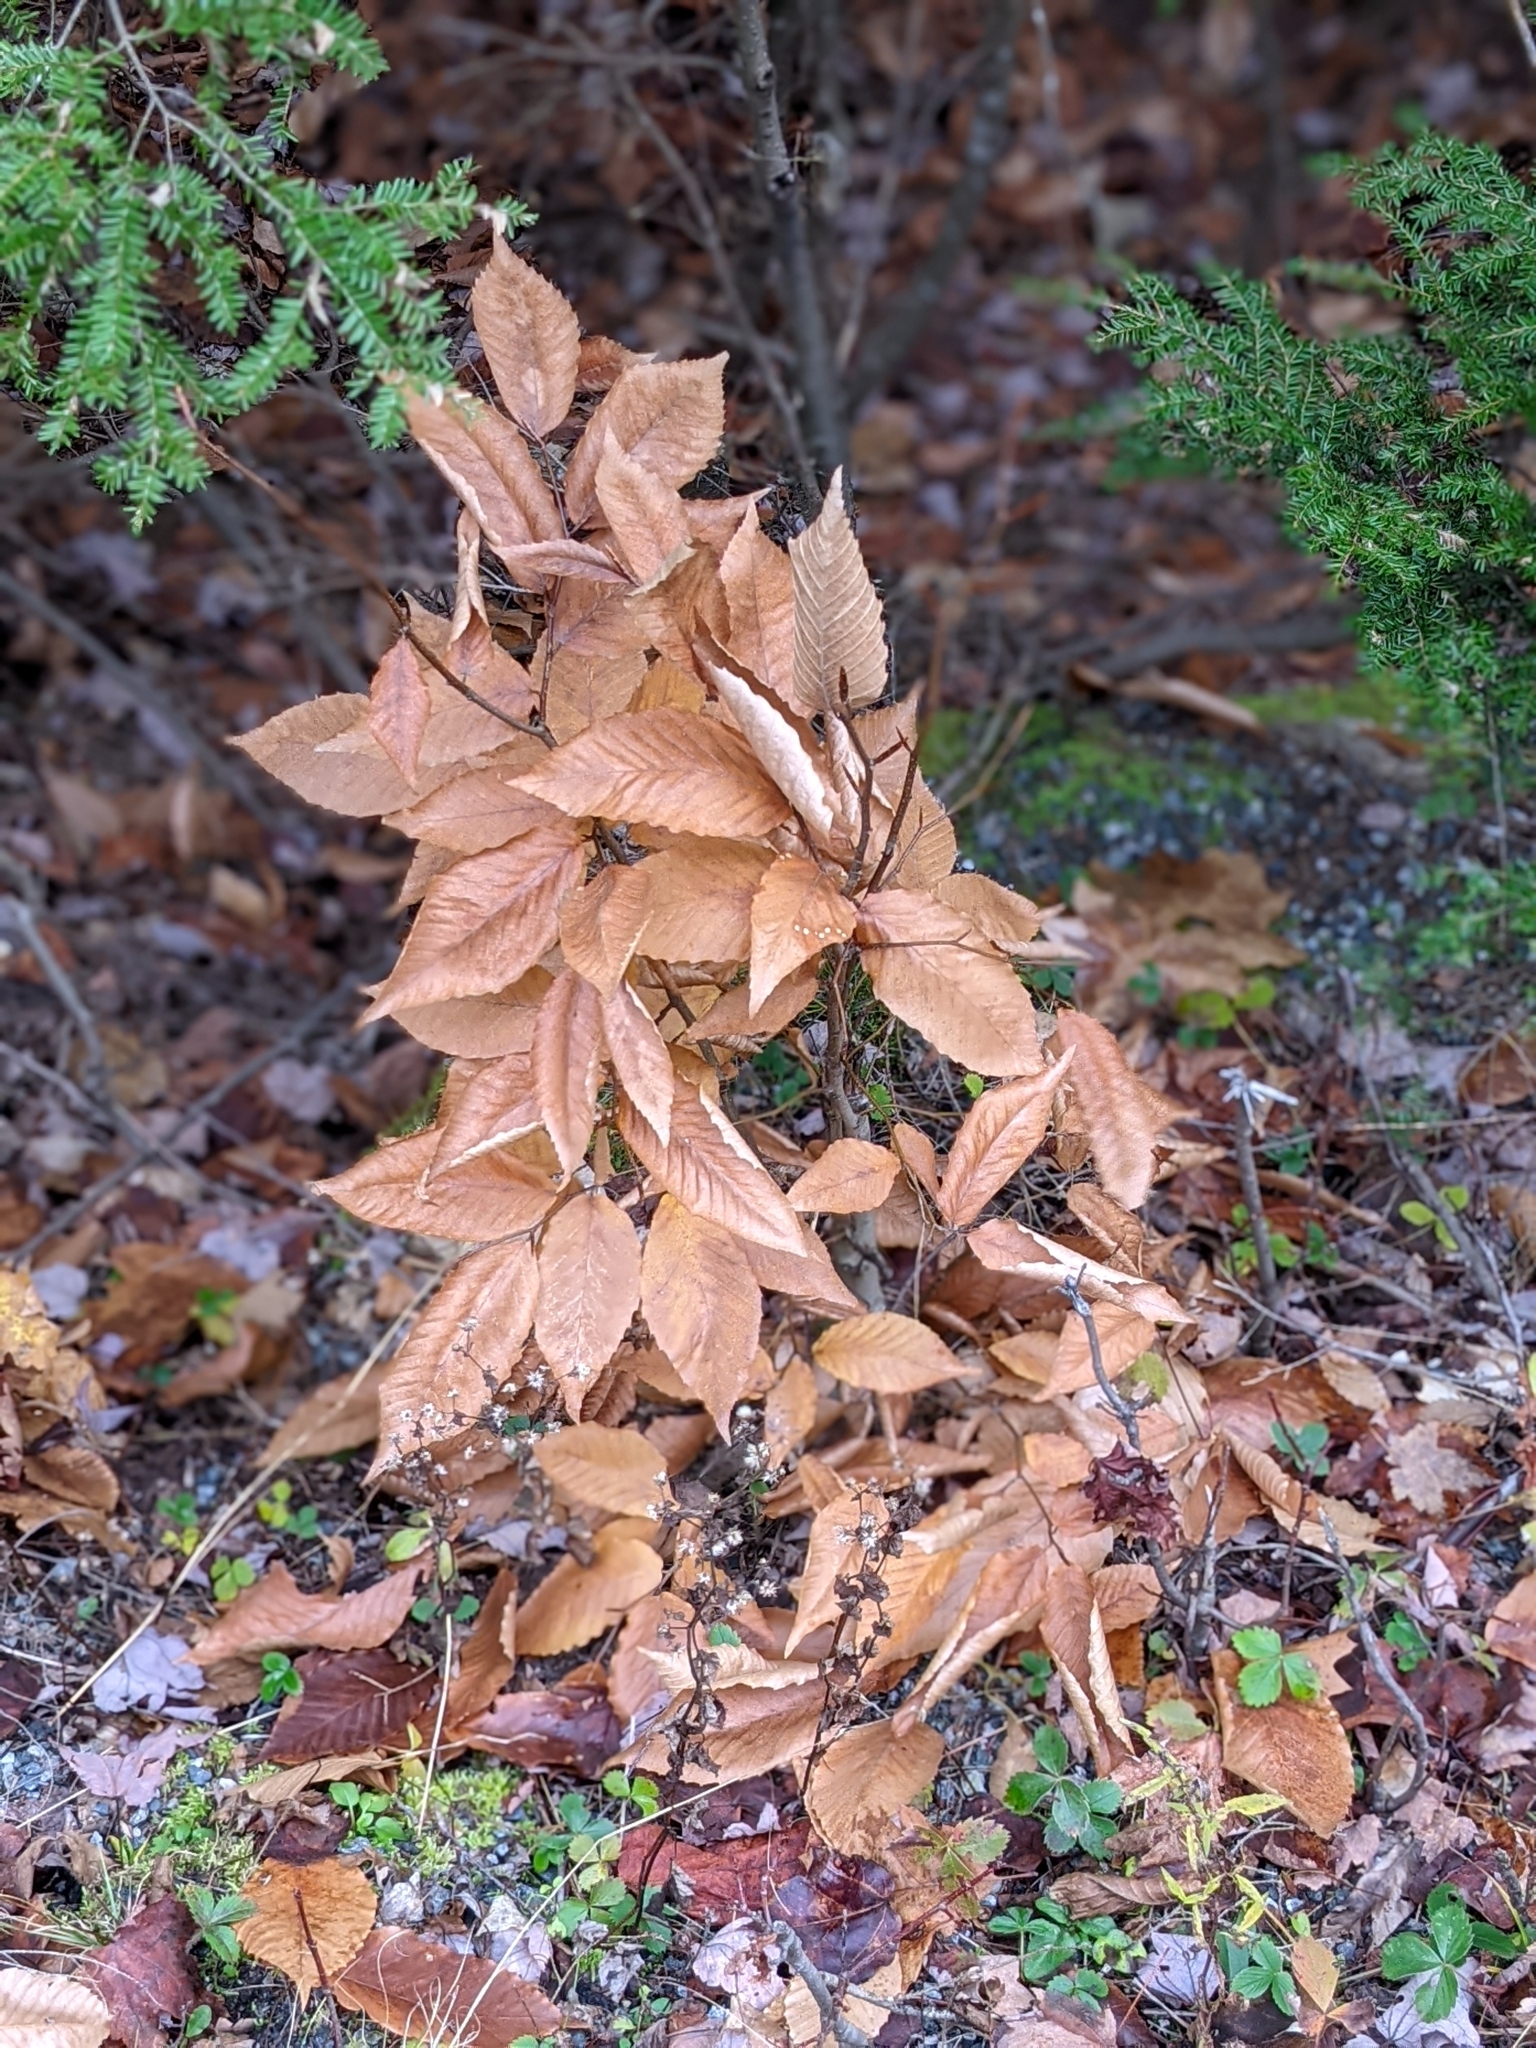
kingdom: Plantae
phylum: Tracheophyta
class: Magnoliopsida
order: Fagales
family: Fagaceae
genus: Fagus
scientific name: Fagus grandifolia
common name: American beech
